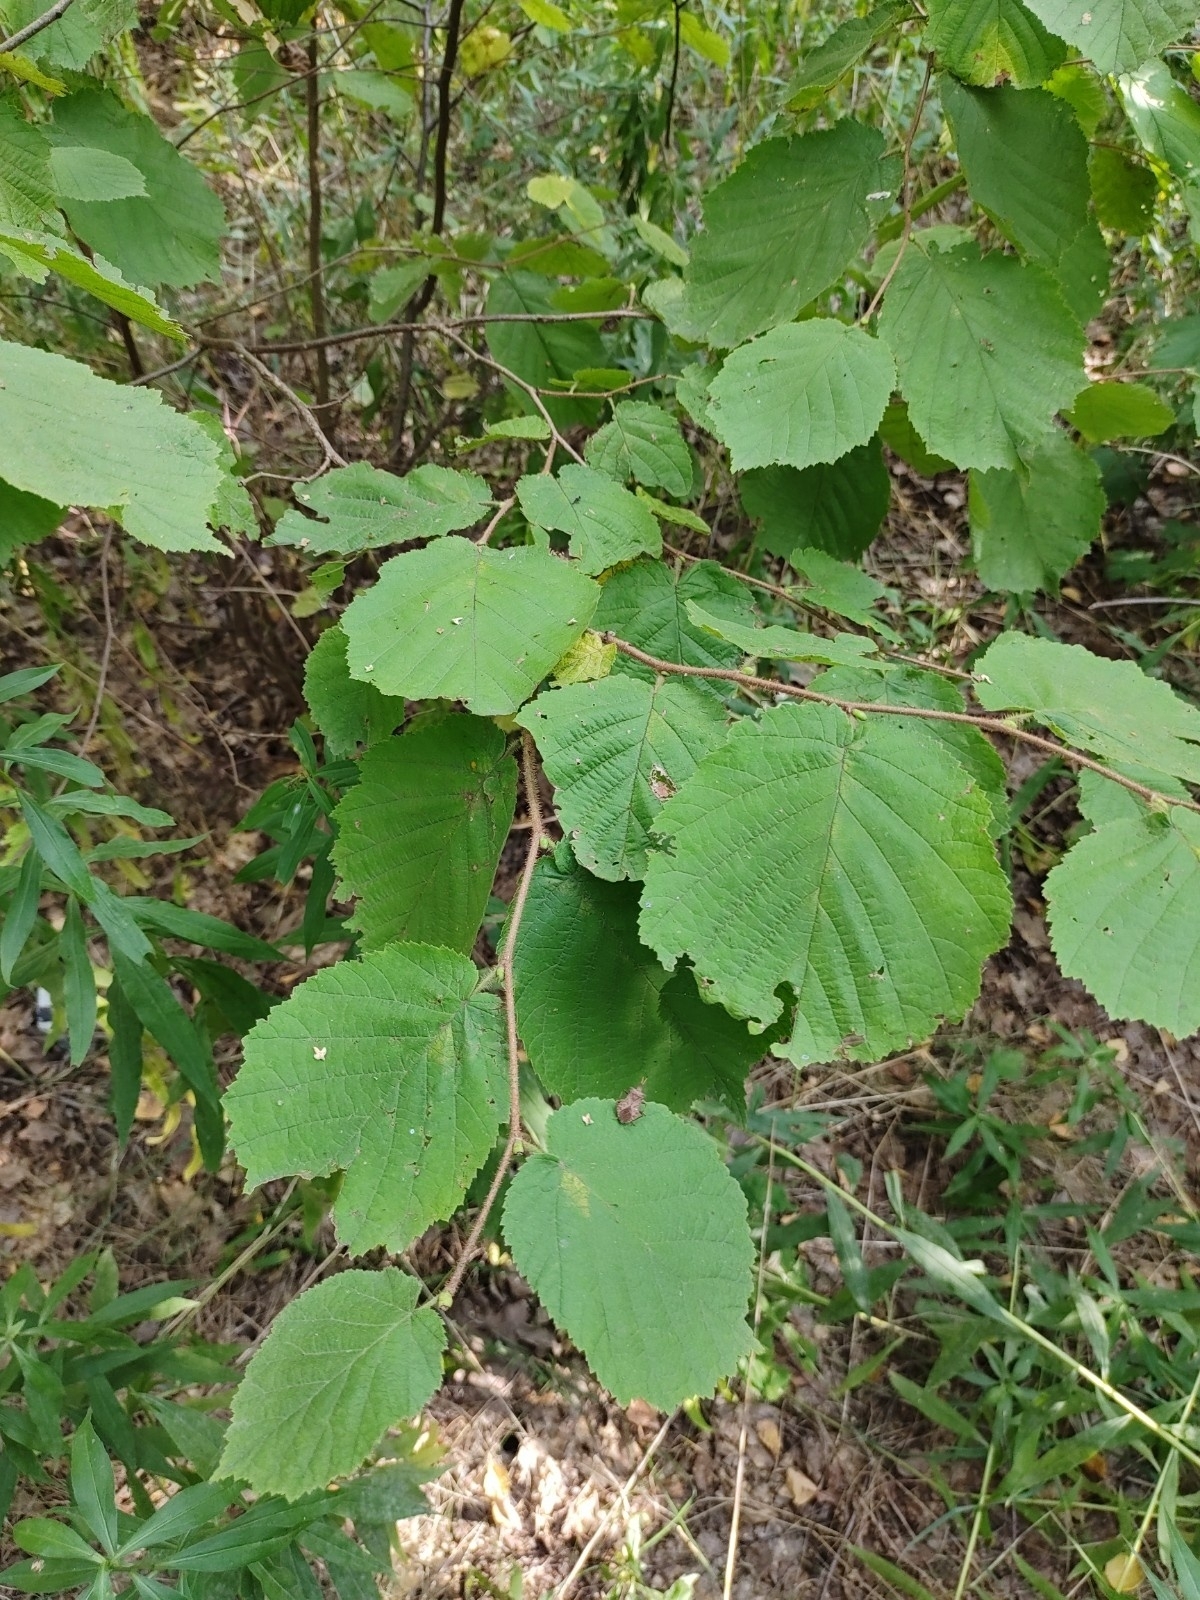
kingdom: Plantae
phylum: Tracheophyta
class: Magnoliopsida
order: Fagales
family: Betulaceae
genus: Corylus
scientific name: Corylus avellana
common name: European hazel
